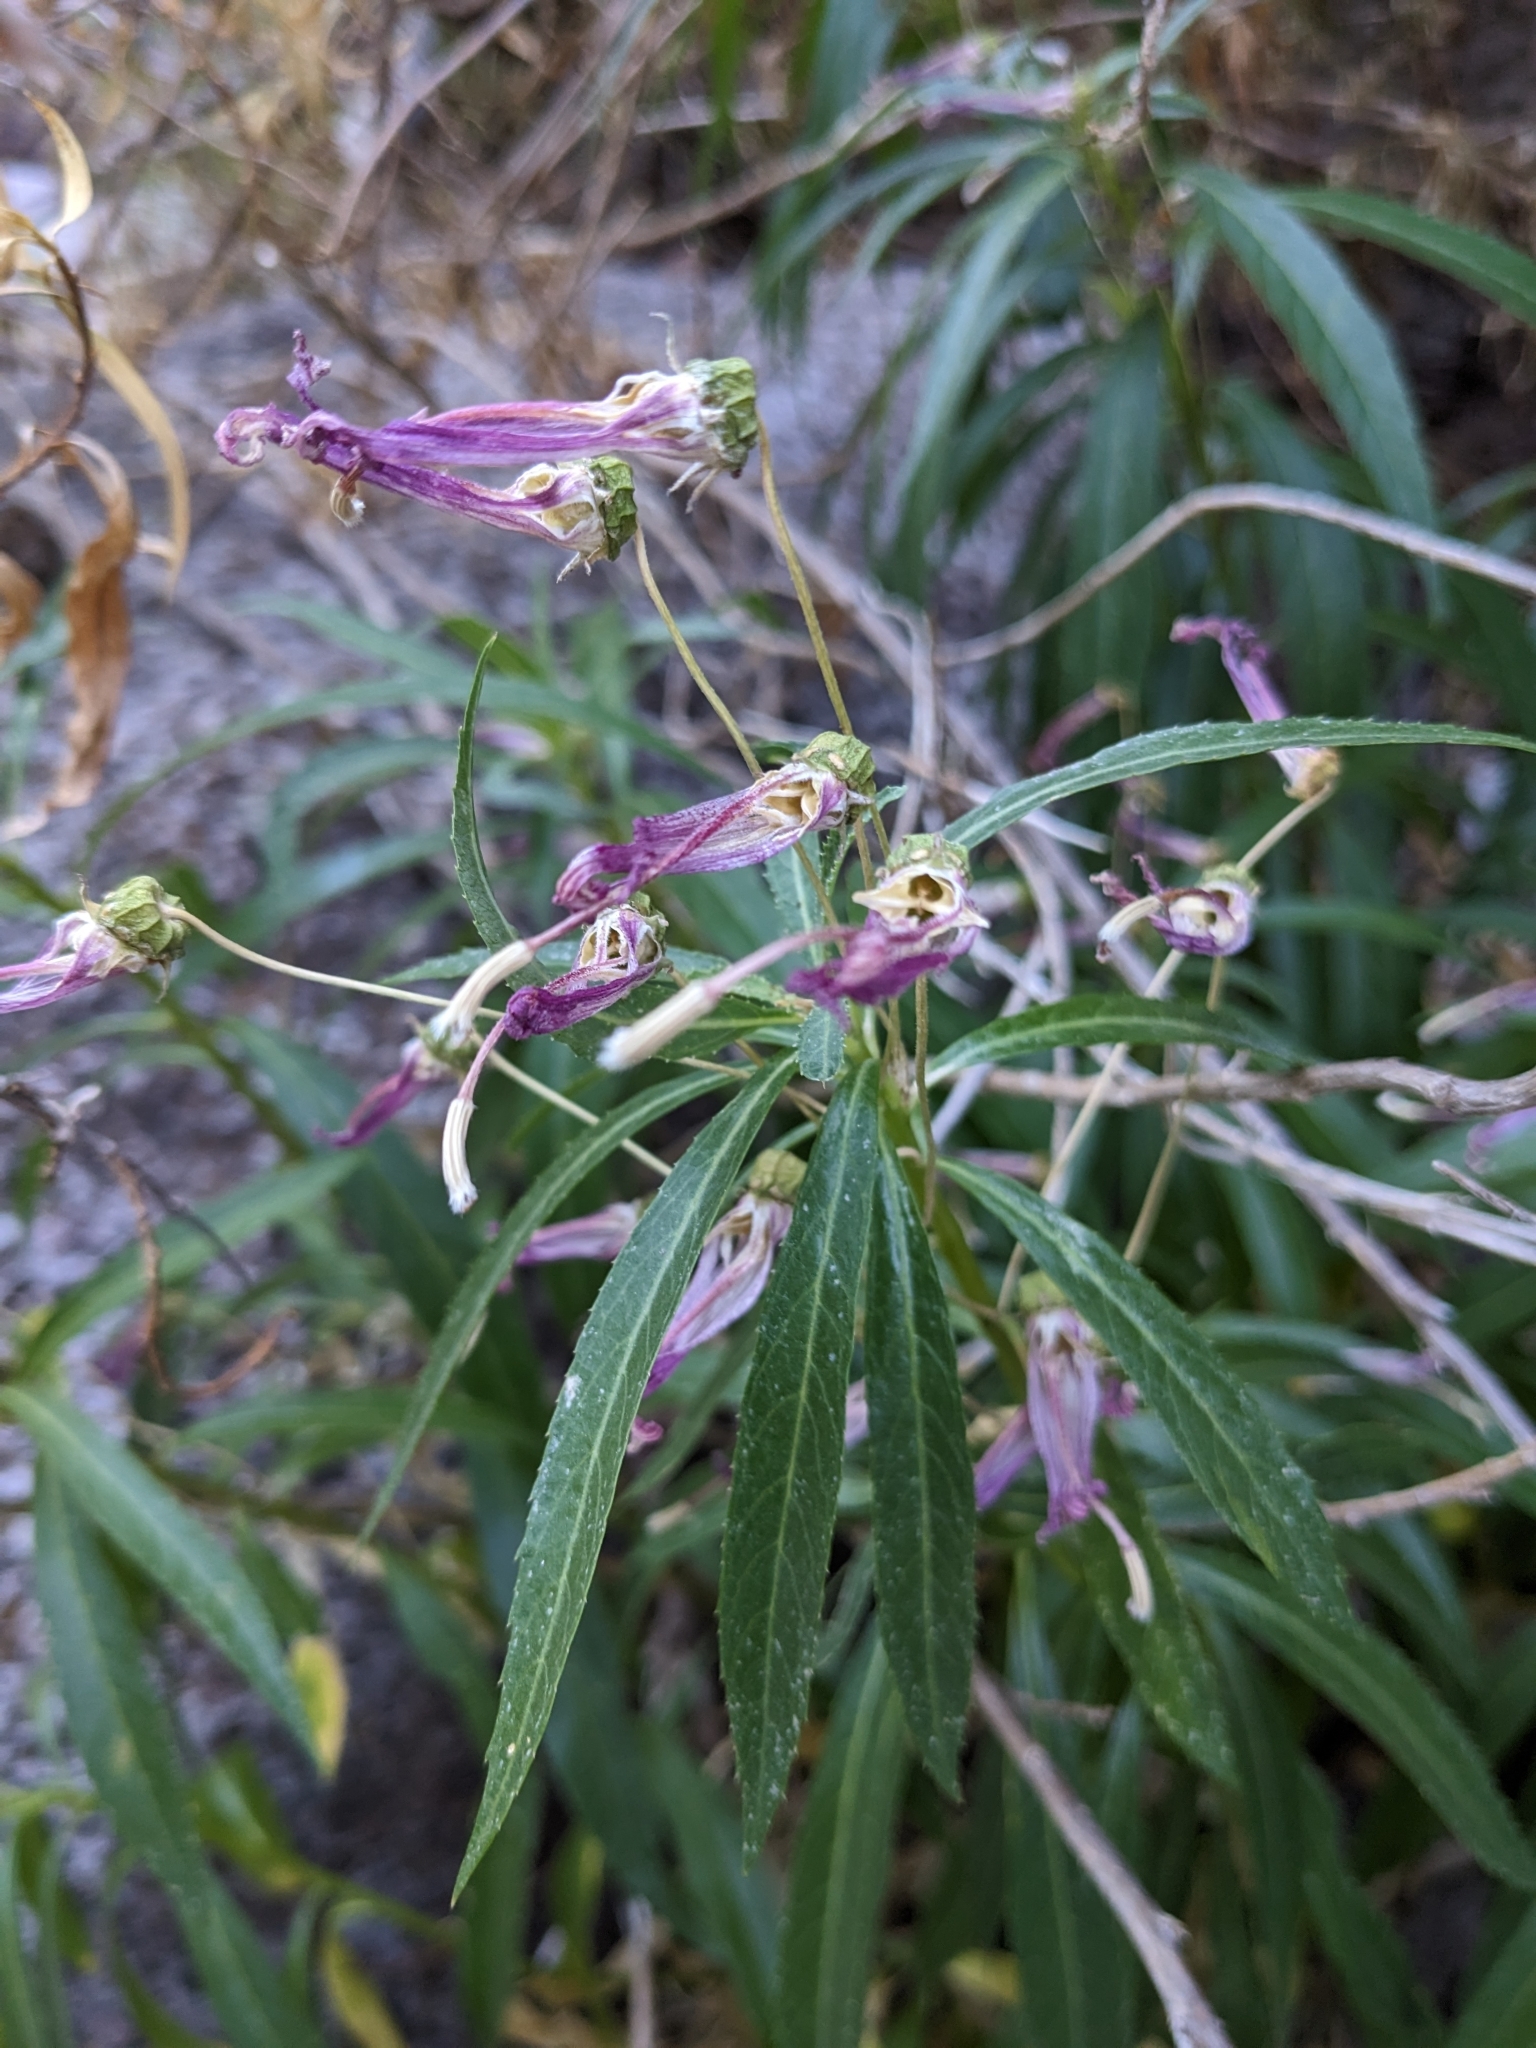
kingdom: Plantae
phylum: Tracheophyta
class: Magnoliopsida
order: Asterales
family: Campanulaceae
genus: Lobelia
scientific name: Lobelia laxiflora
